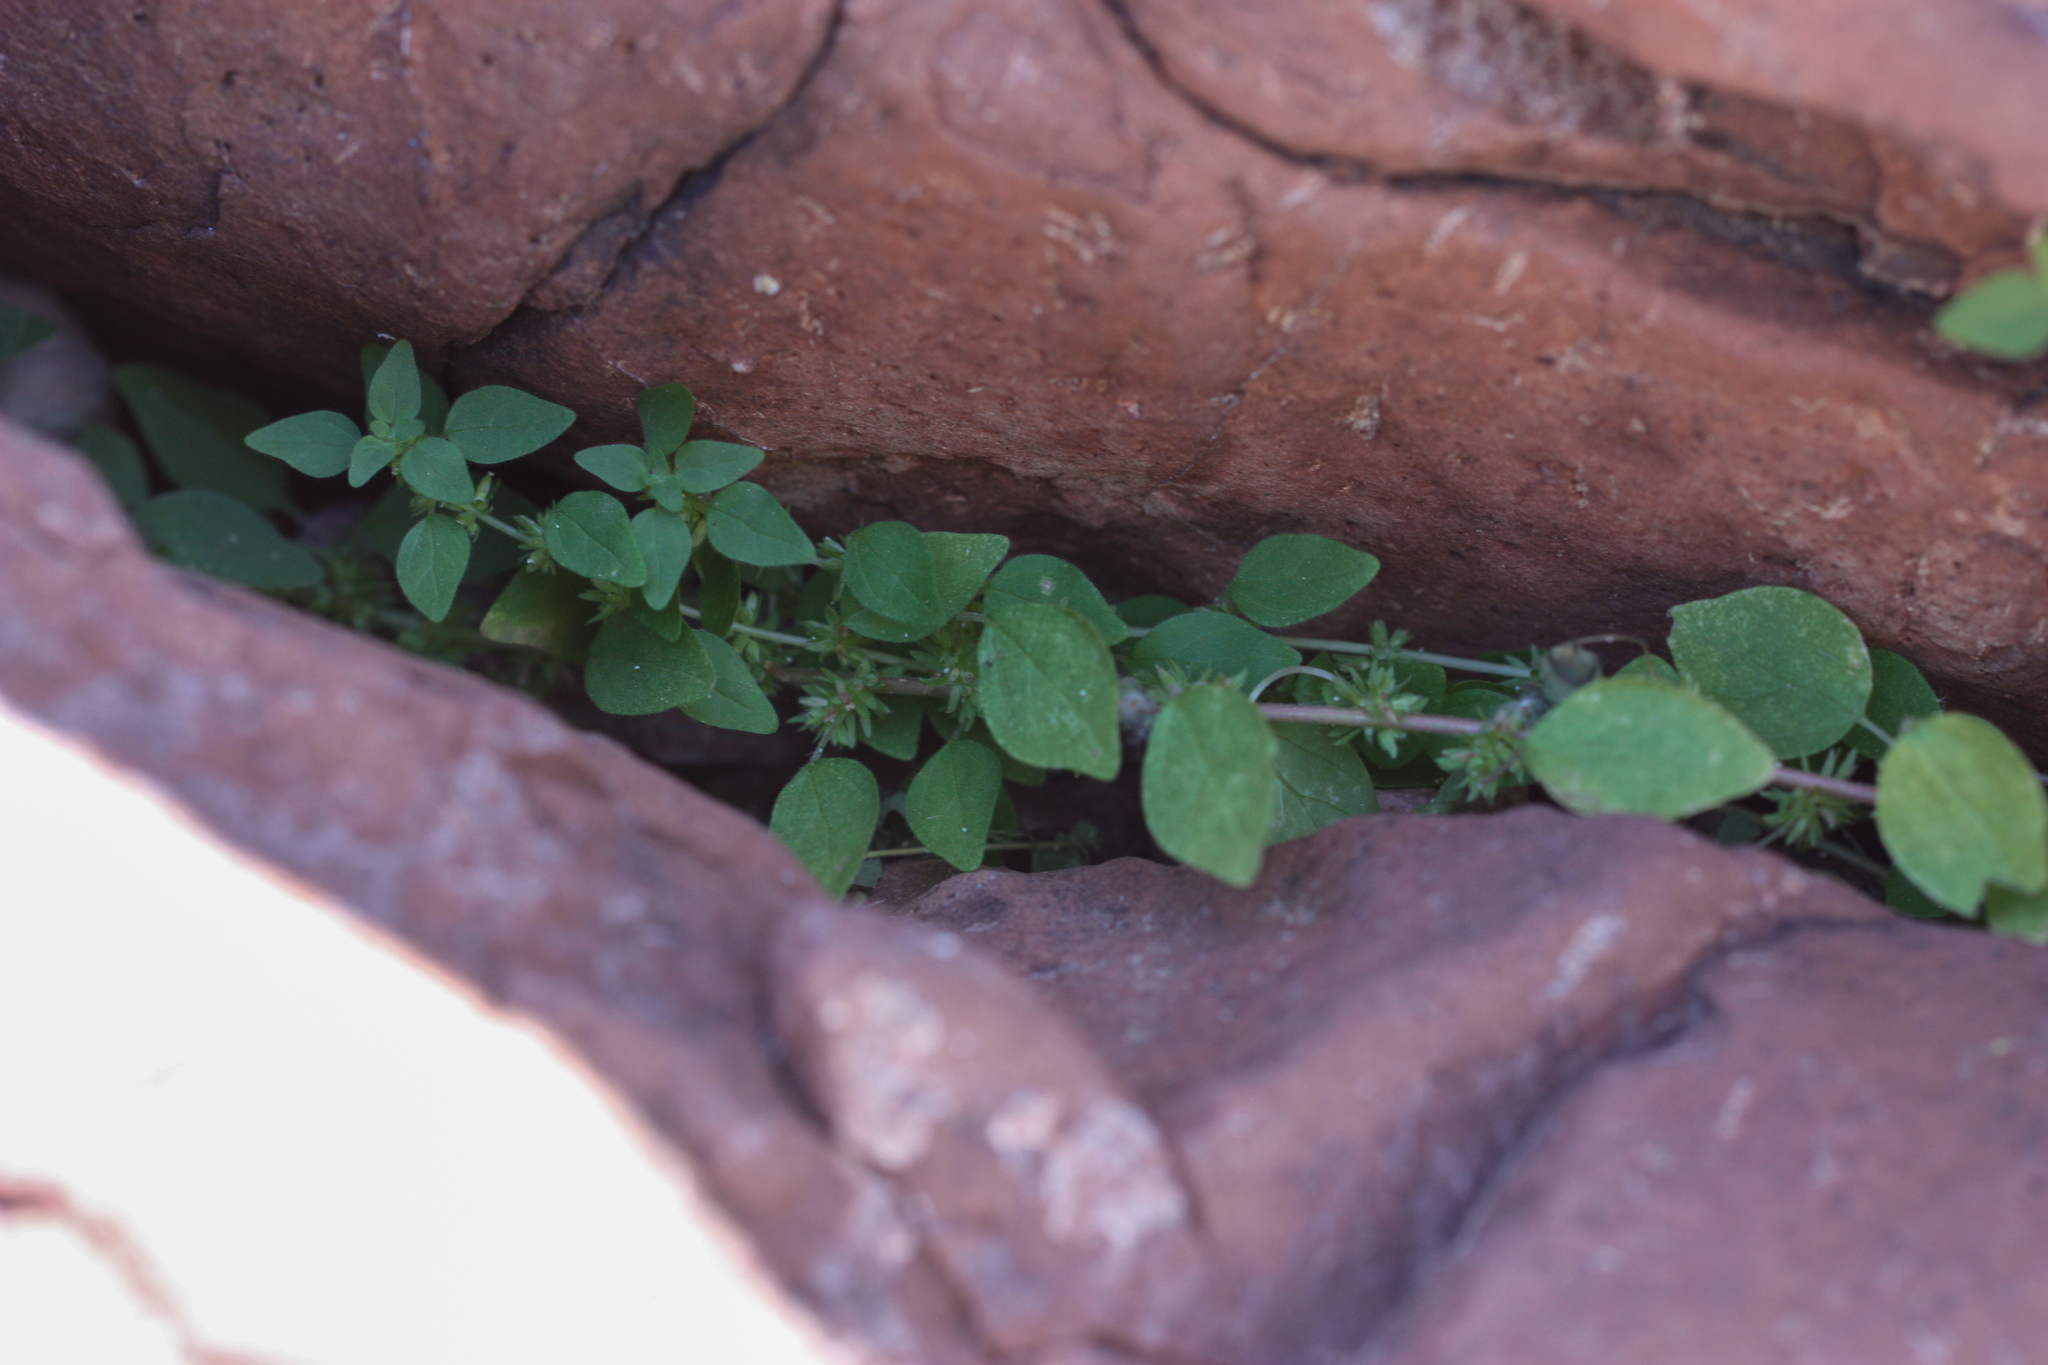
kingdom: Plantae
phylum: Tracheophyta
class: Magnoliopsida
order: Rosales
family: Urticaceae
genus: Parietaria
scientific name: Parietaria hespera
